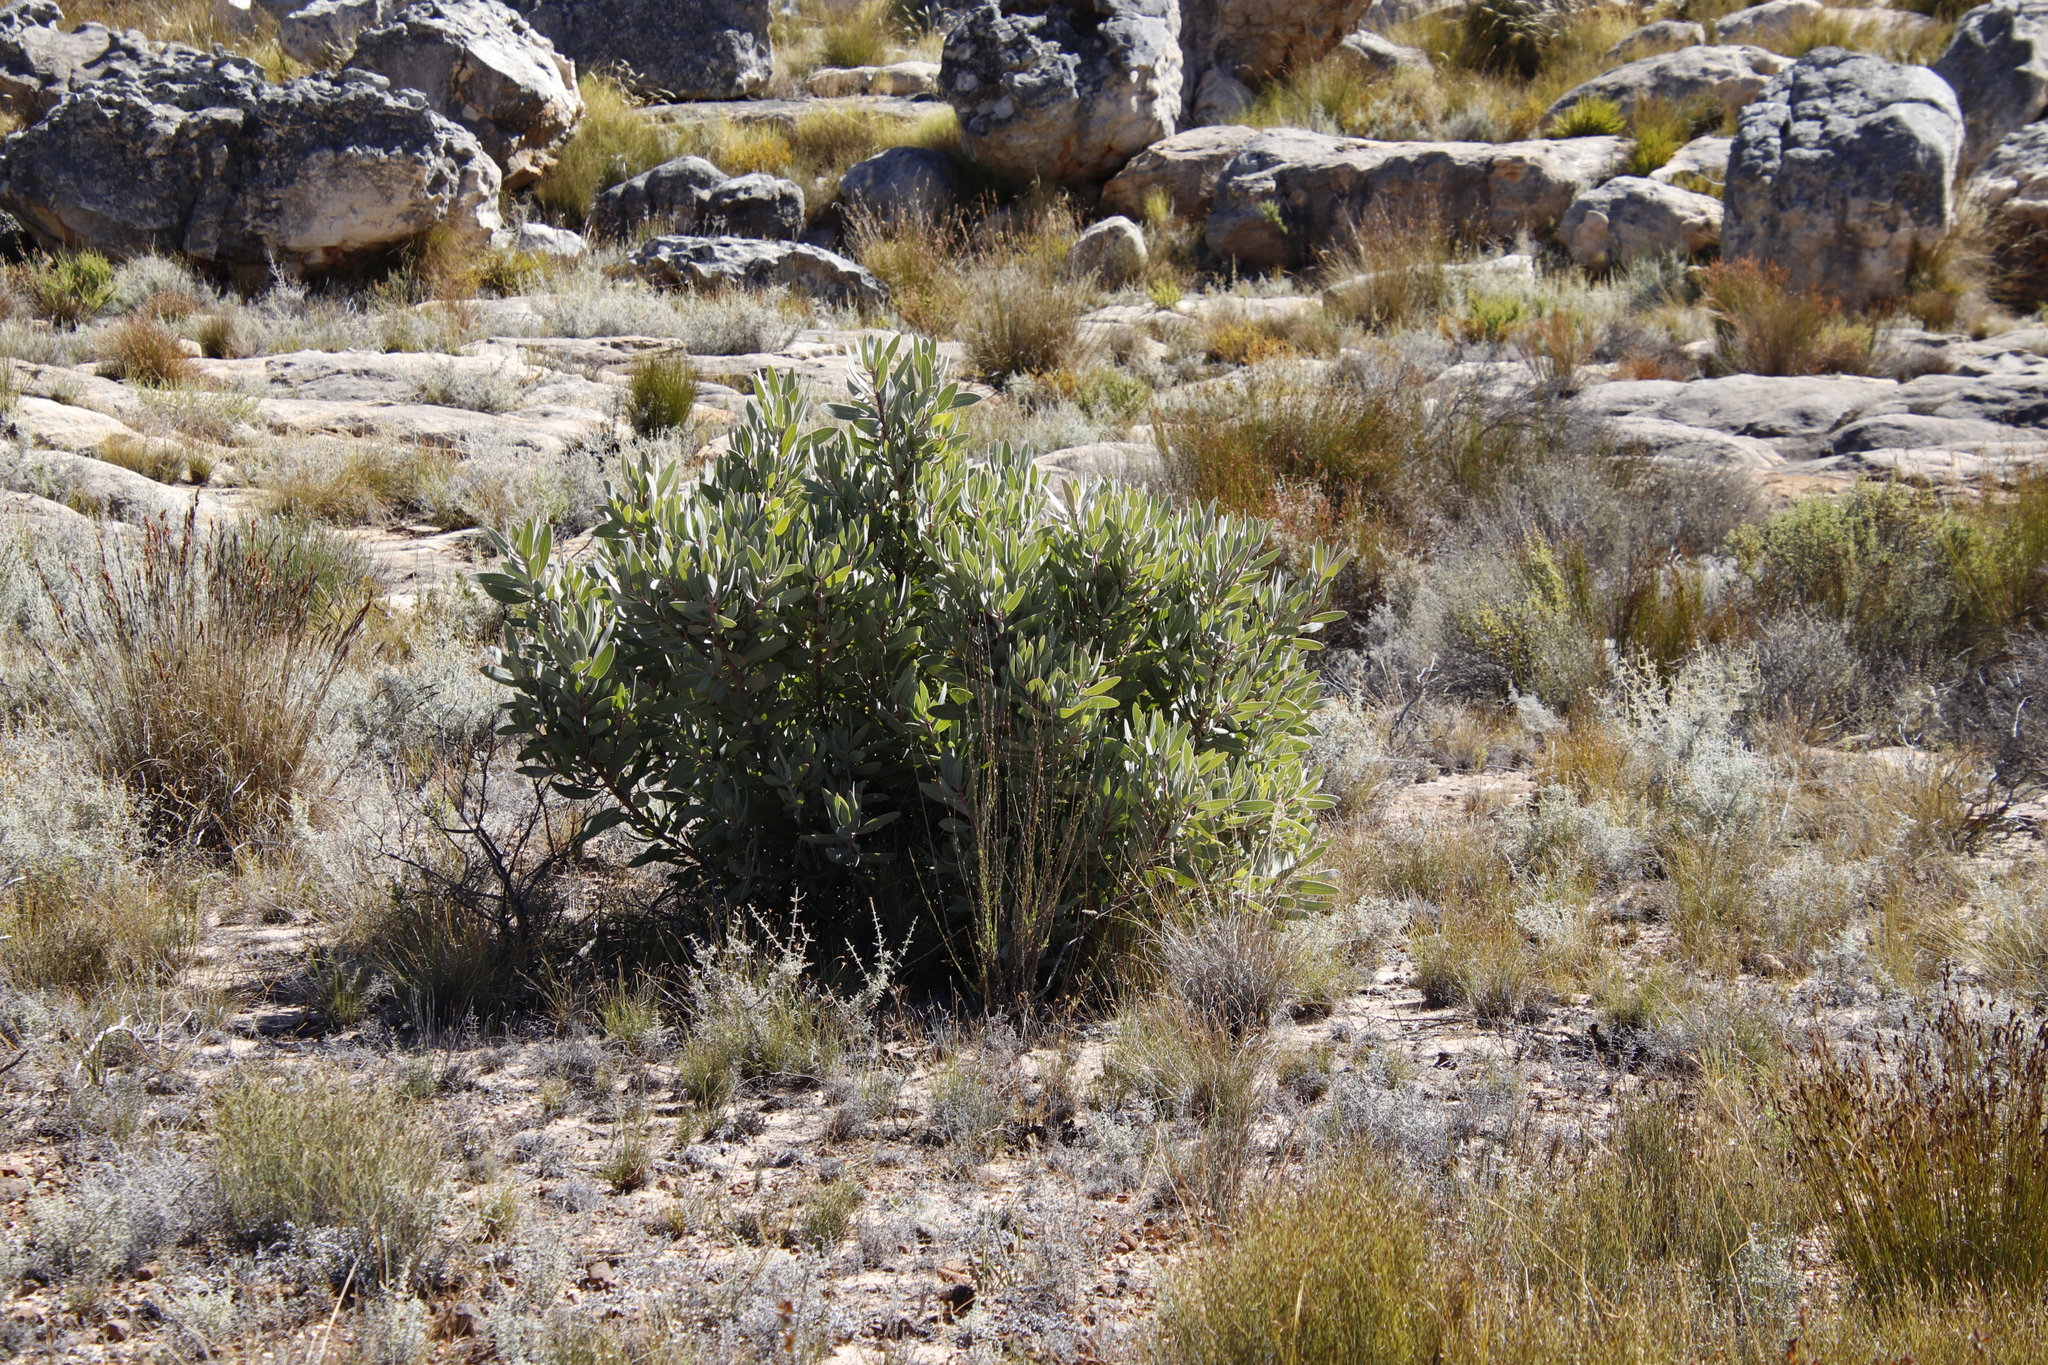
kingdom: Plantae
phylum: Tracheophyta
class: Magnoliopsida
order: Proteales
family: Proteaceae
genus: Protea
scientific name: Protea laurifolia
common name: Grey-leaf sugarbsh
